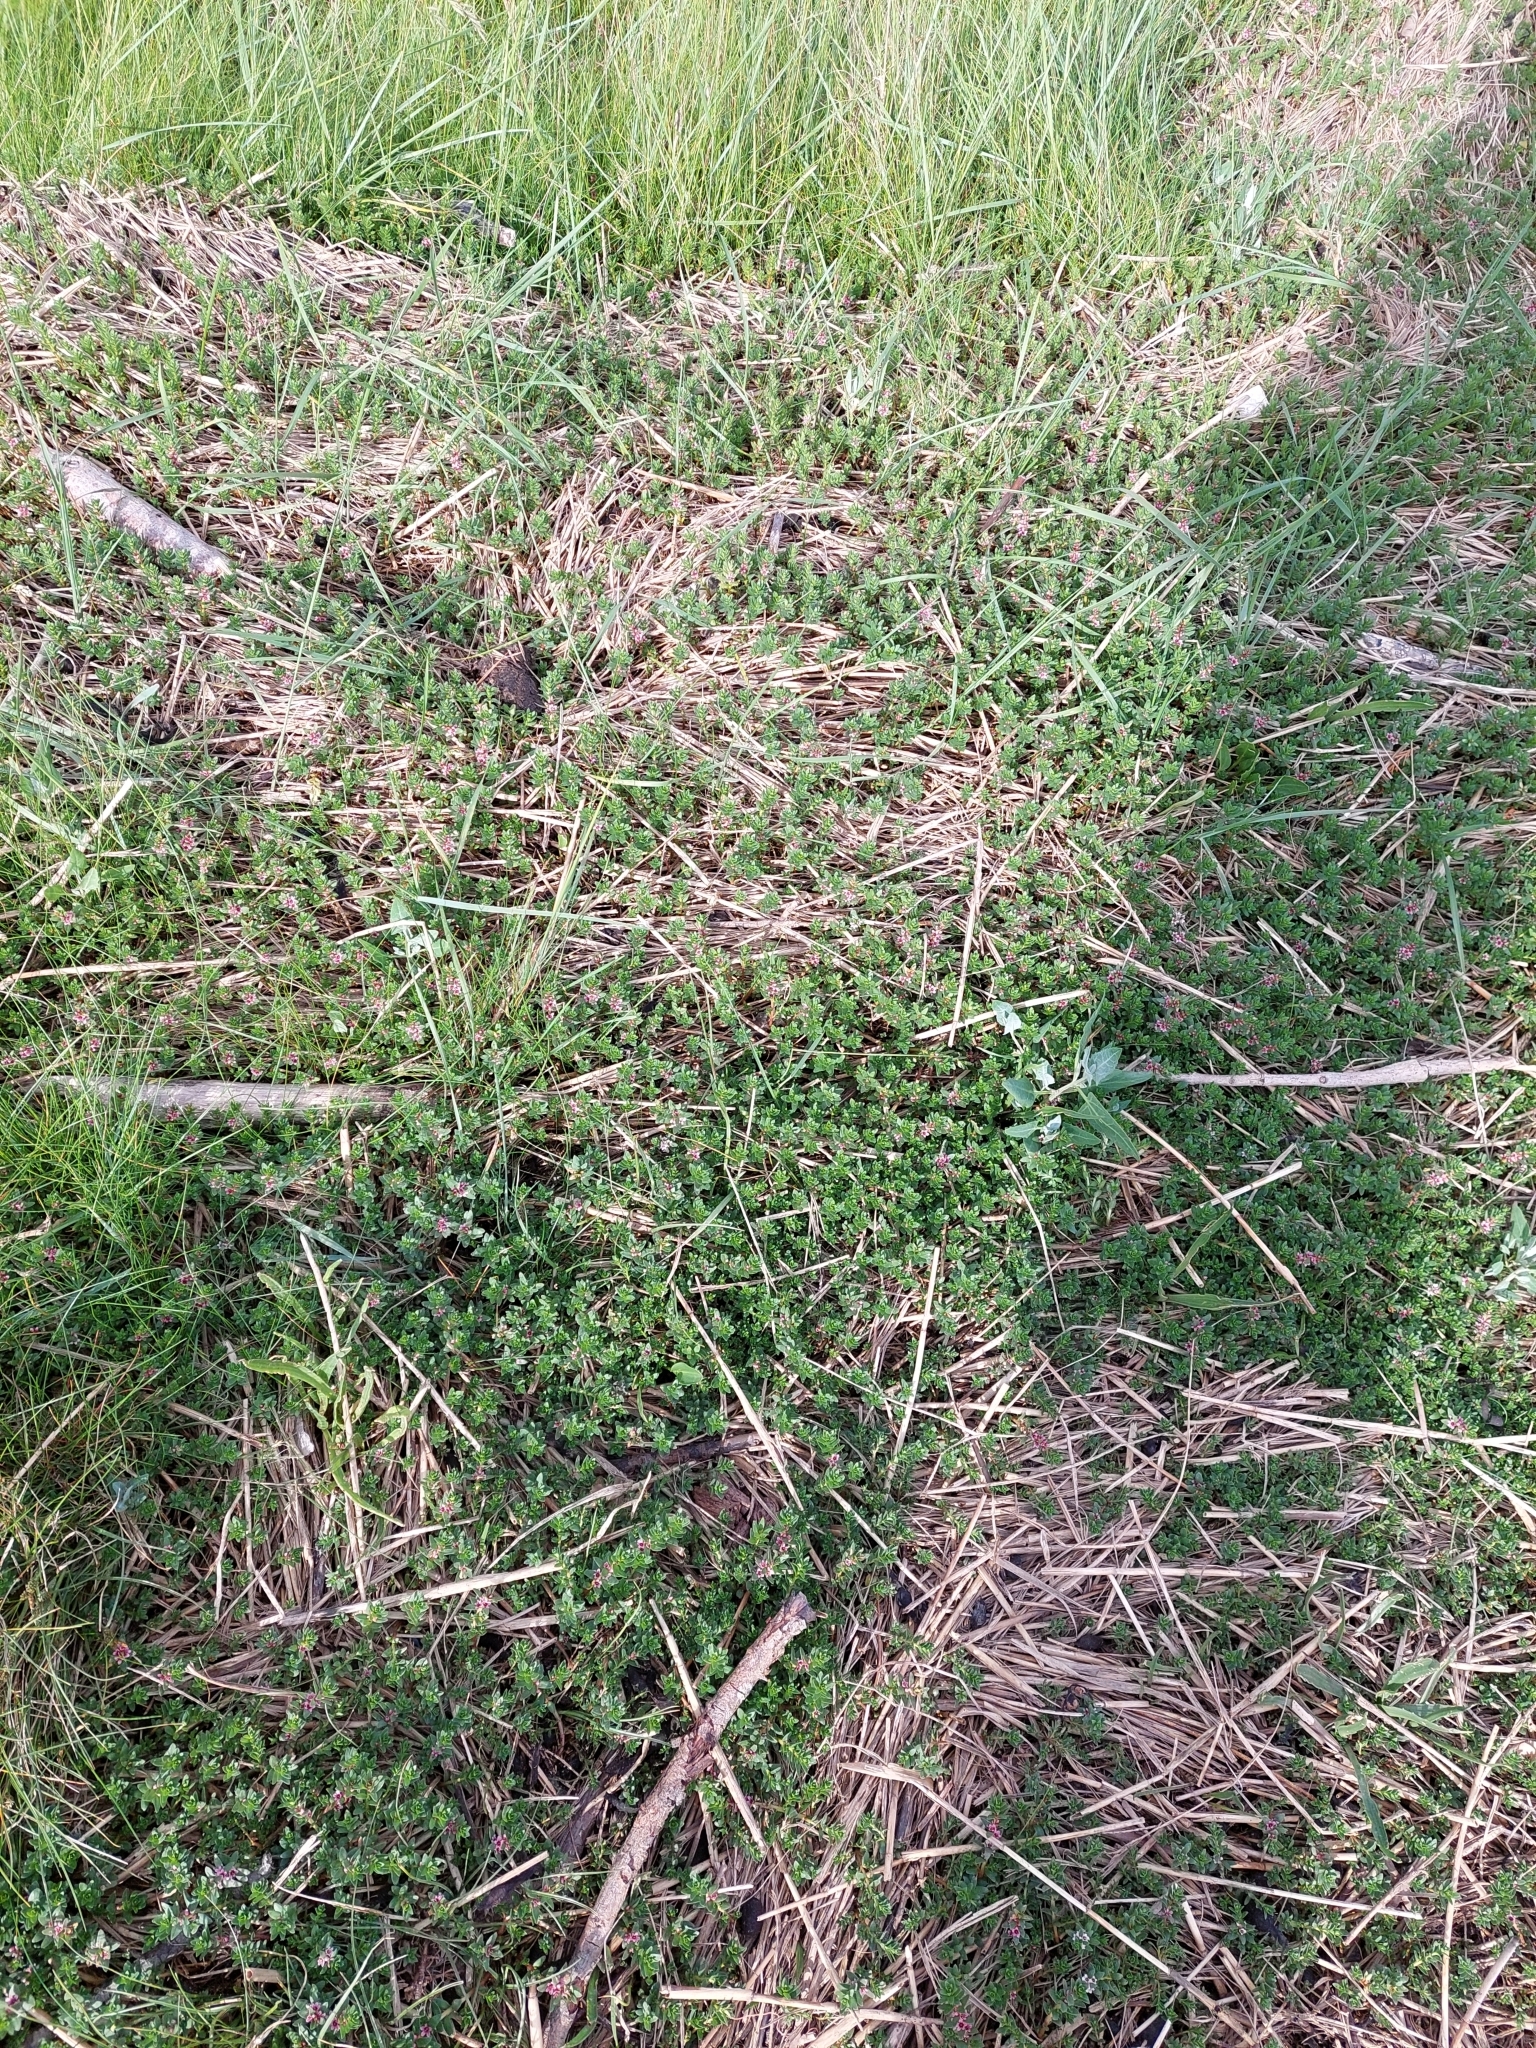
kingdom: Plantae
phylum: Tracheophyta
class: Magnoliopsida
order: Ericales
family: Primulaceae
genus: Lysimachia
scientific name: Lysimachia maritima
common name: Sea milkwort
